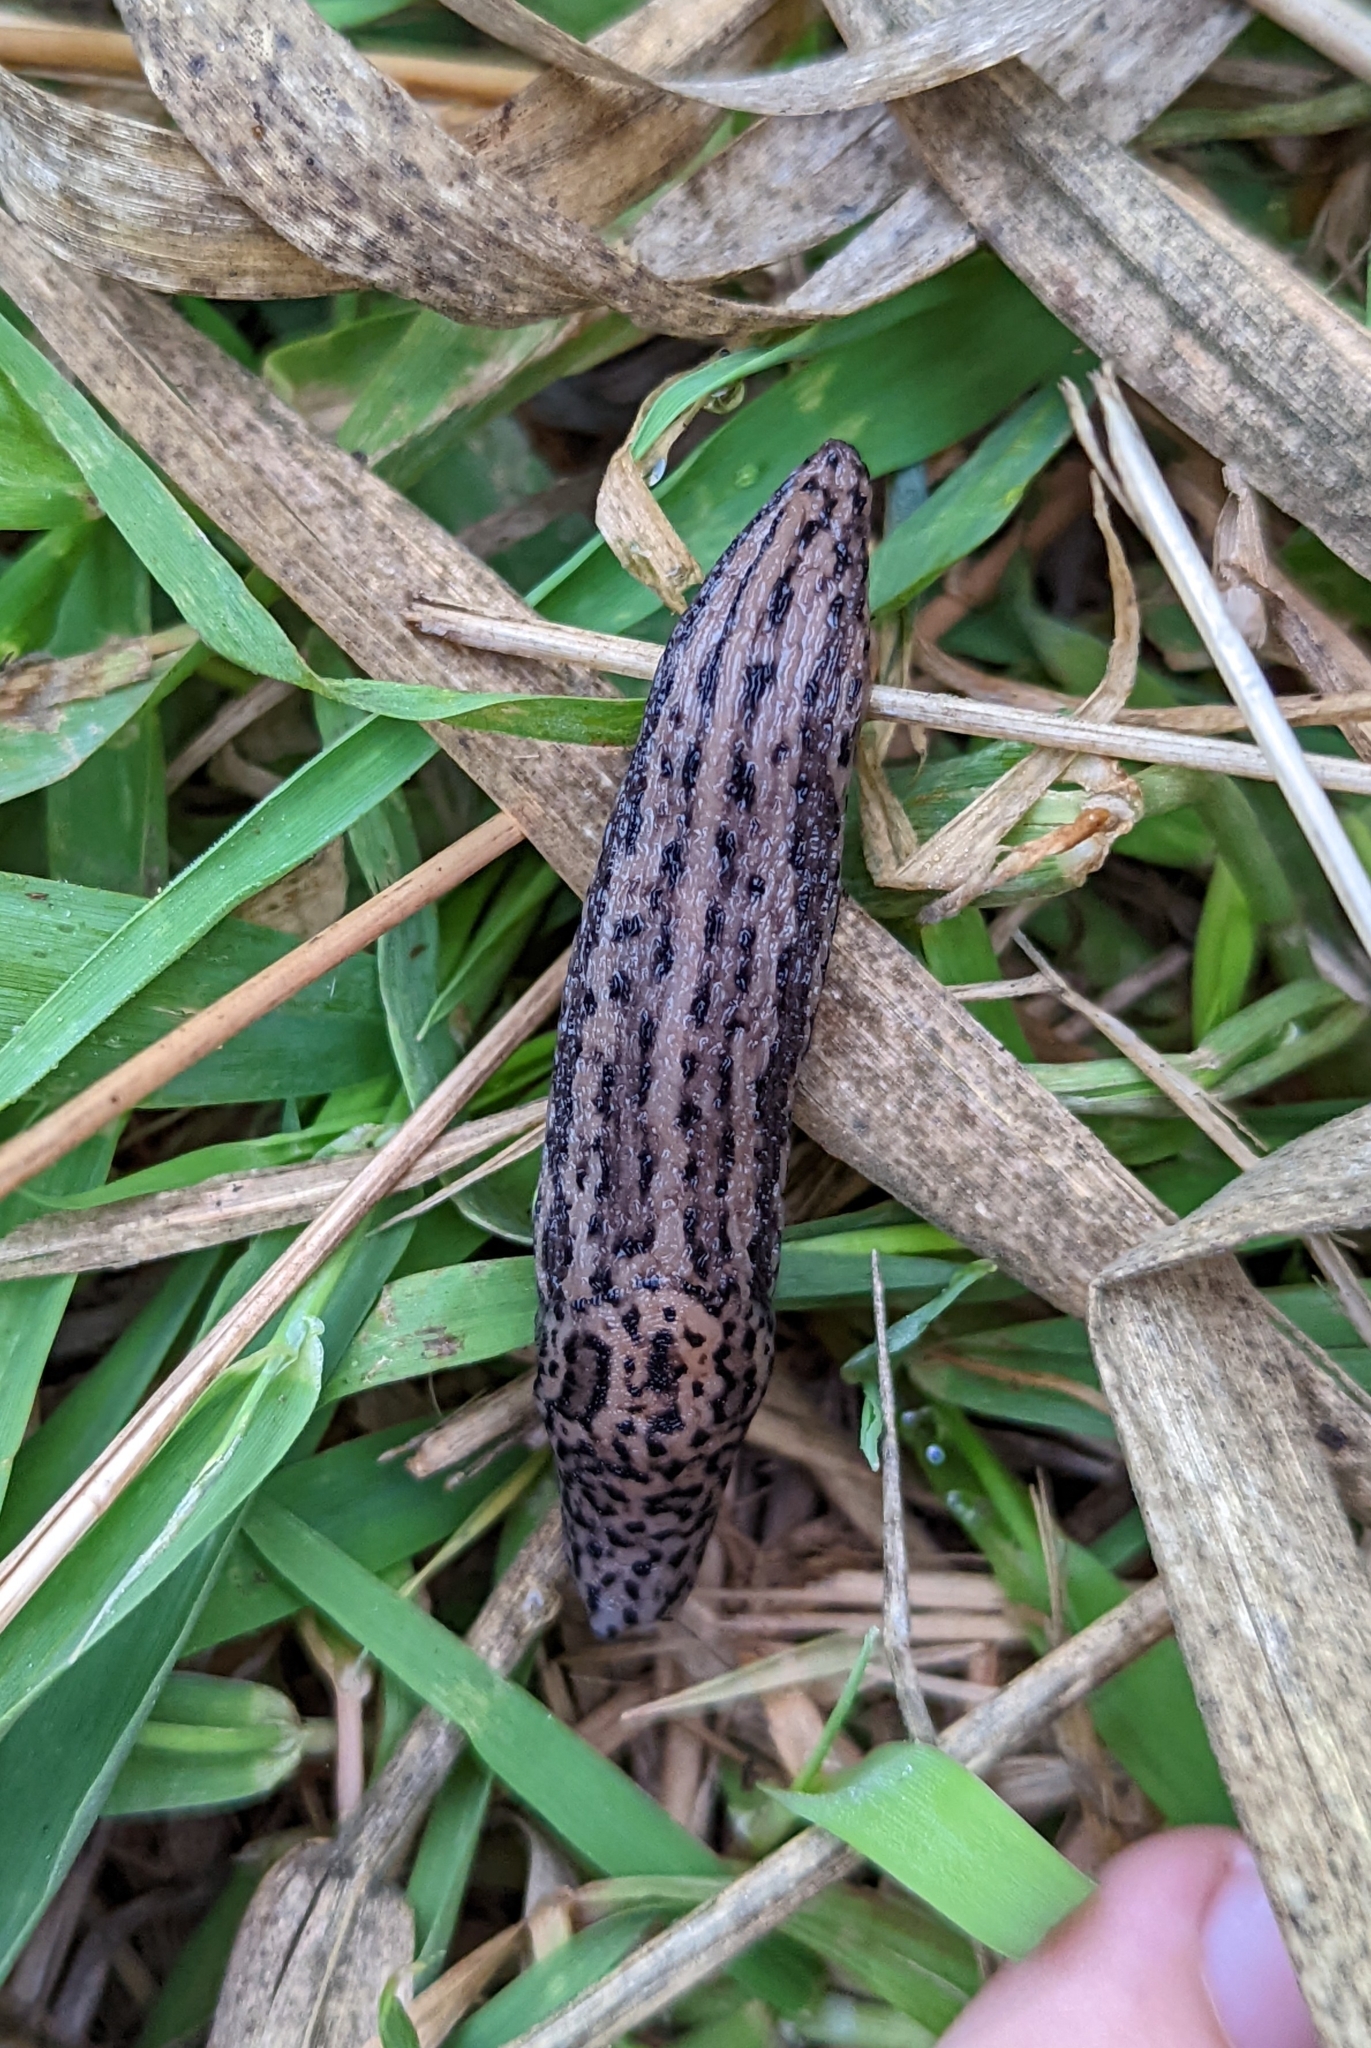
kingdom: Animalia
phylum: Mollusca
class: Gastropoda
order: Stylommatophora
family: Limacidae
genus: Limax
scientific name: Limax maximus
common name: Great grey slug
